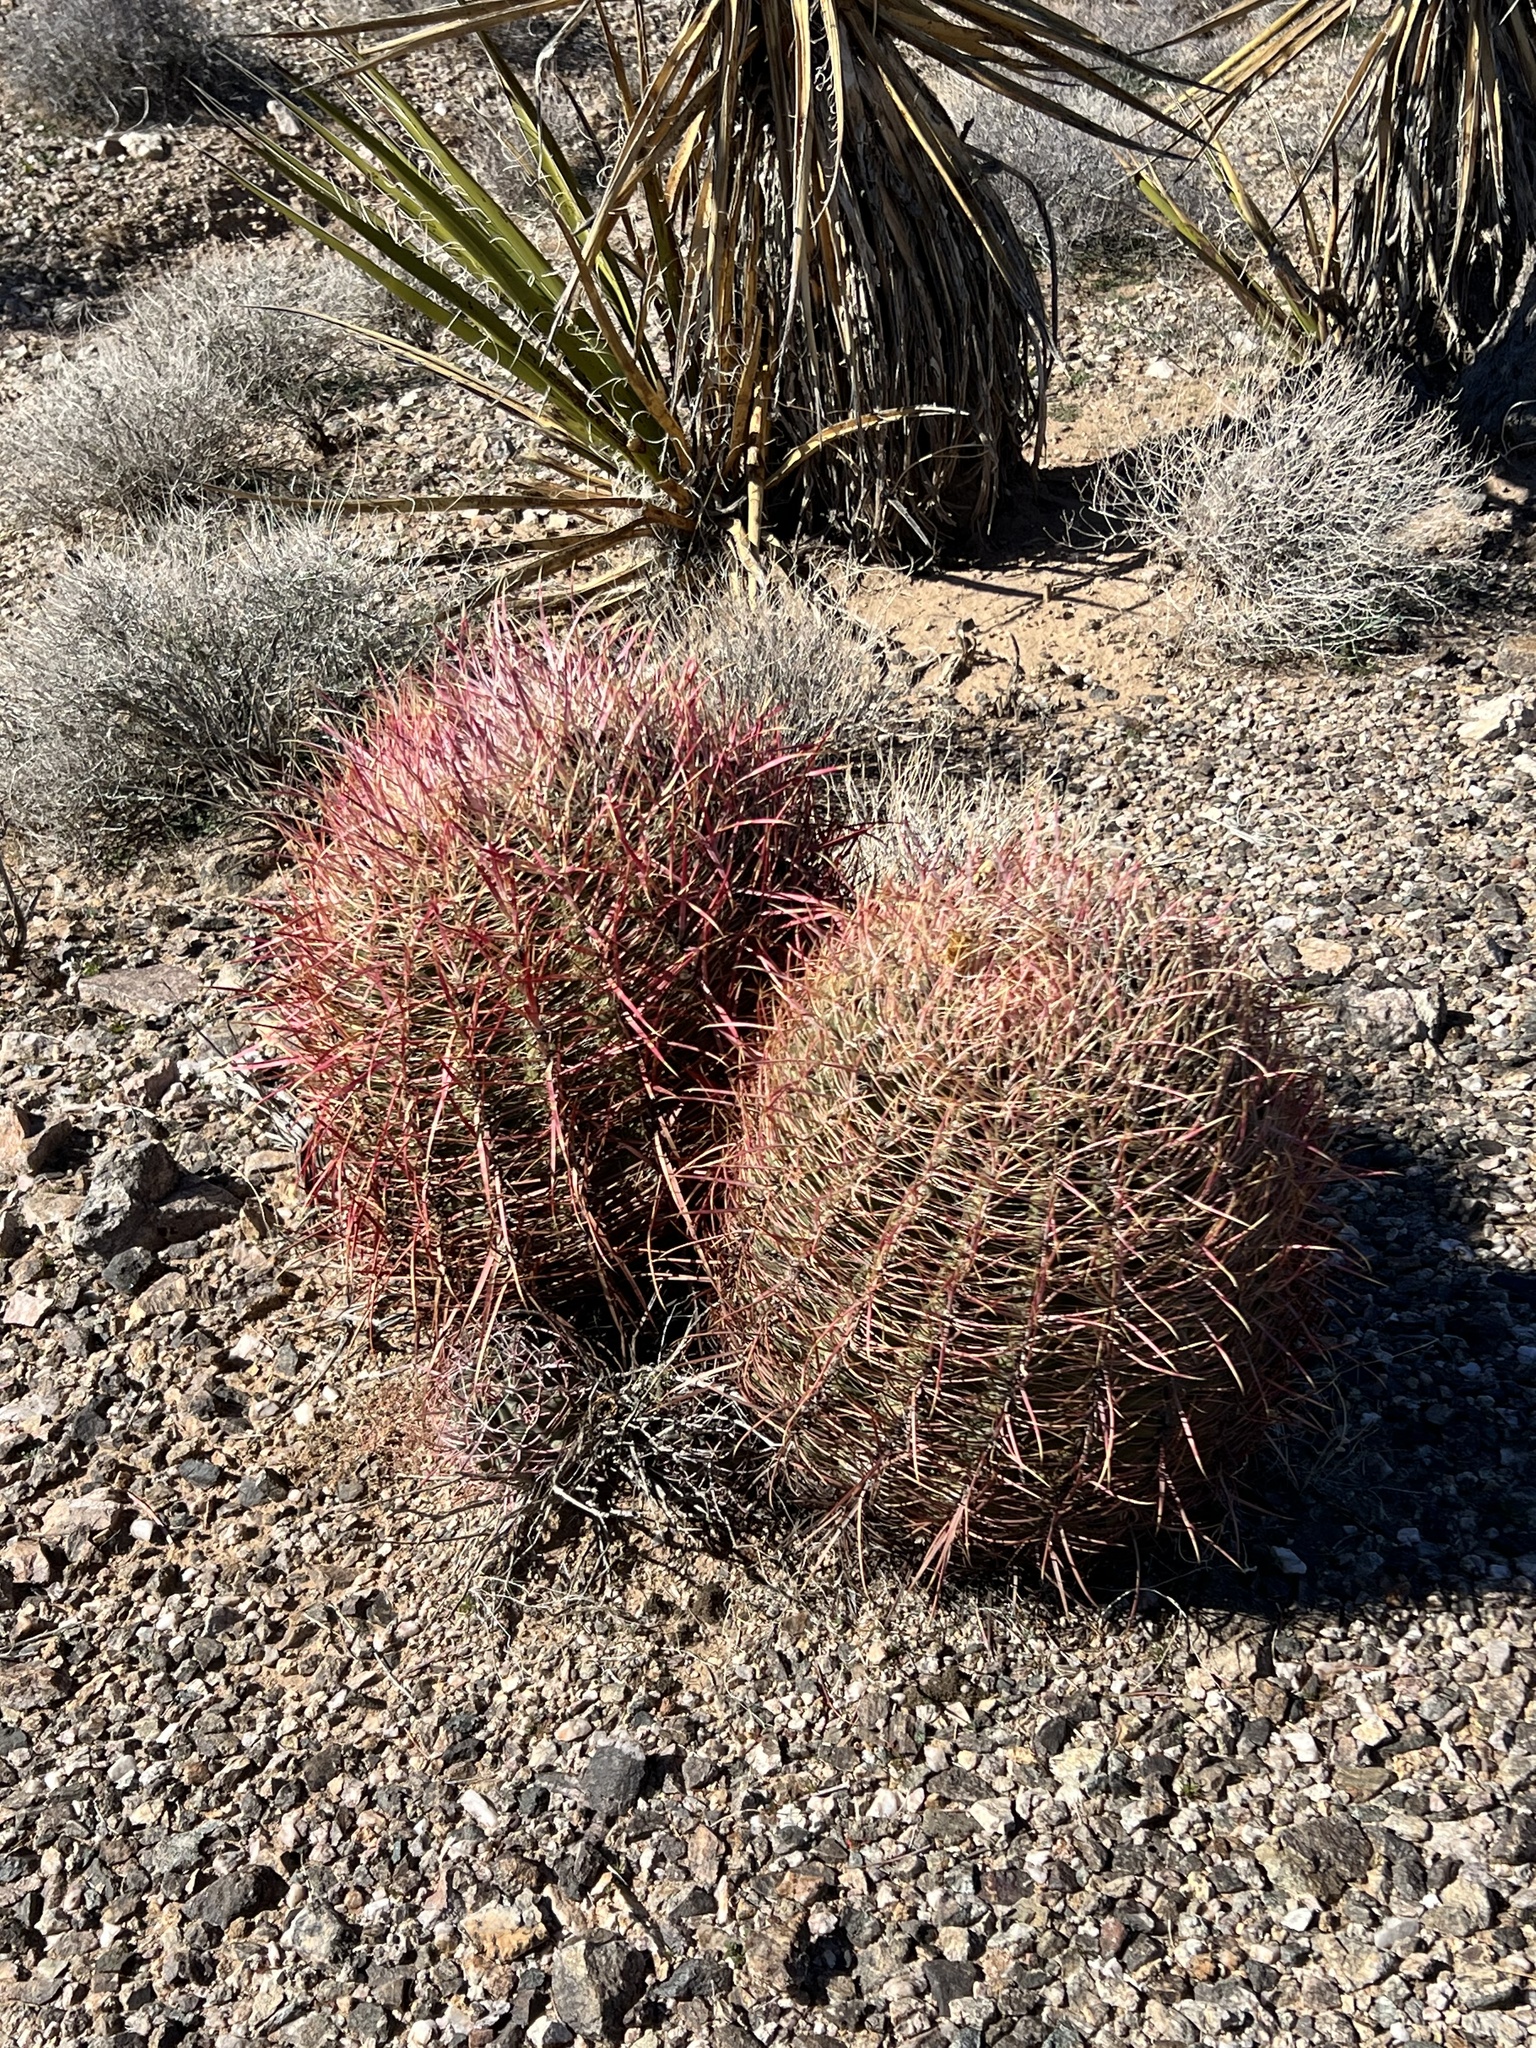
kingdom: Plantae
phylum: Tracheophyta
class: Magnoliopsida
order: Caryophyllales
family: Cactaceae
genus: Ferocactus
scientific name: Ferocactus cylindraceus
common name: California barrel cactus
